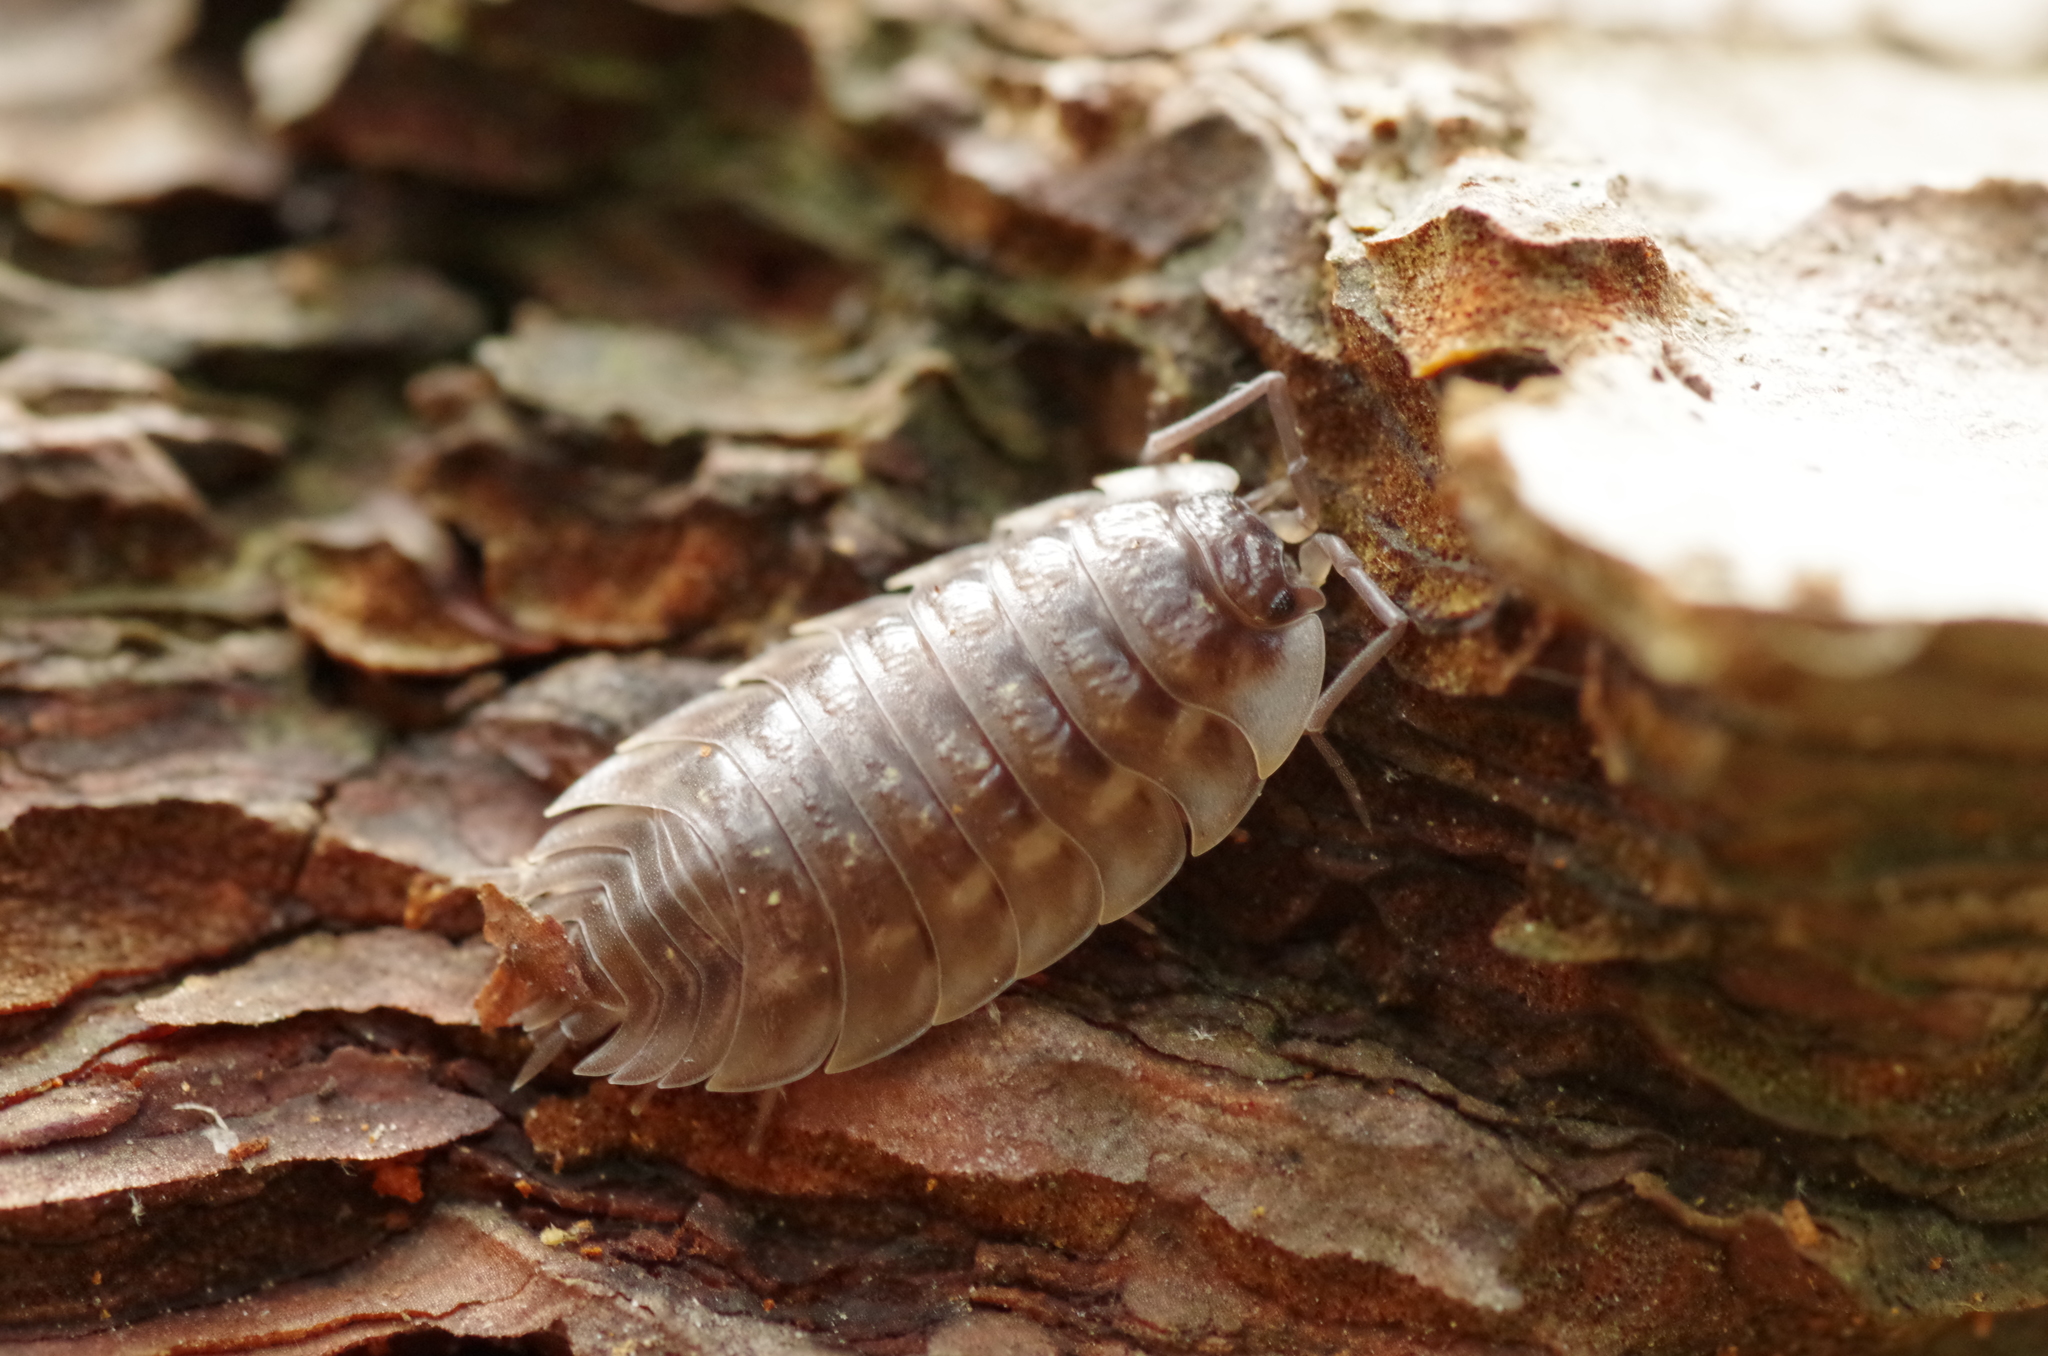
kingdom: Animalia
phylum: Arthropoda
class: Malacostraca
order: Isopoda
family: Oniscidae
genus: Oniscus
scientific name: Oniscus asellus
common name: Common shiny woodlouse
